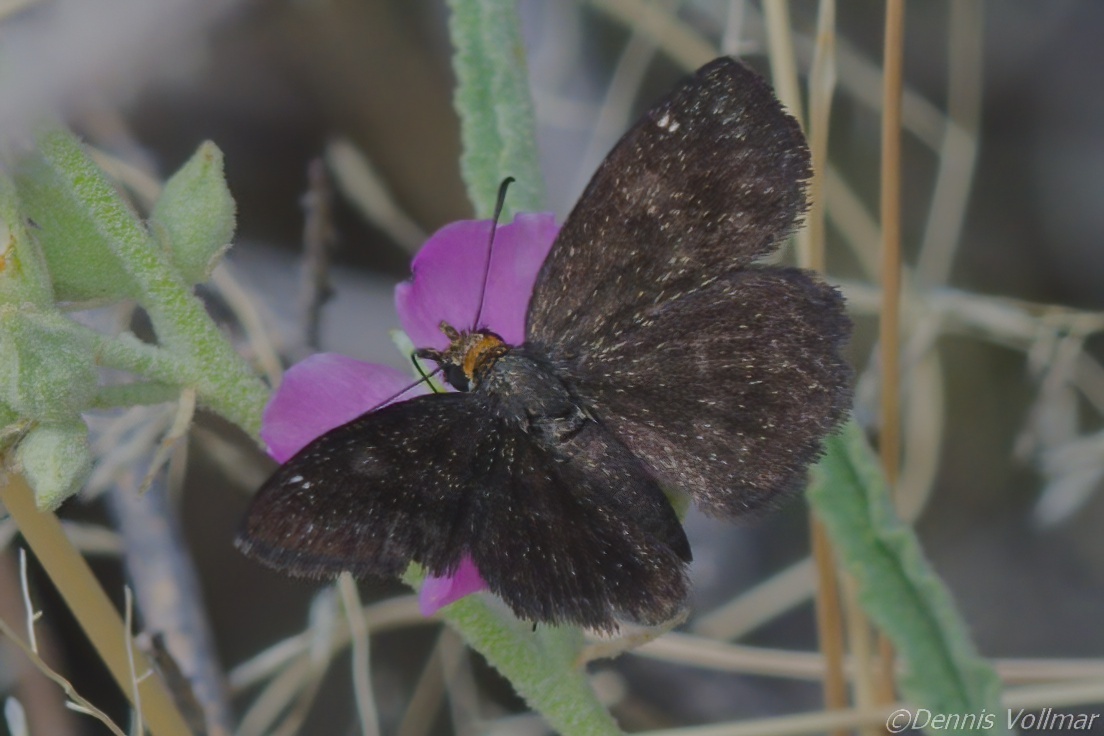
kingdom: Animalia
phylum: Arthropoda
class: Insecta
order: Lepidoptera
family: Hesperiidae
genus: Staphylus
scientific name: Staphylus ceos
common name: Golden-headed scallopwing
